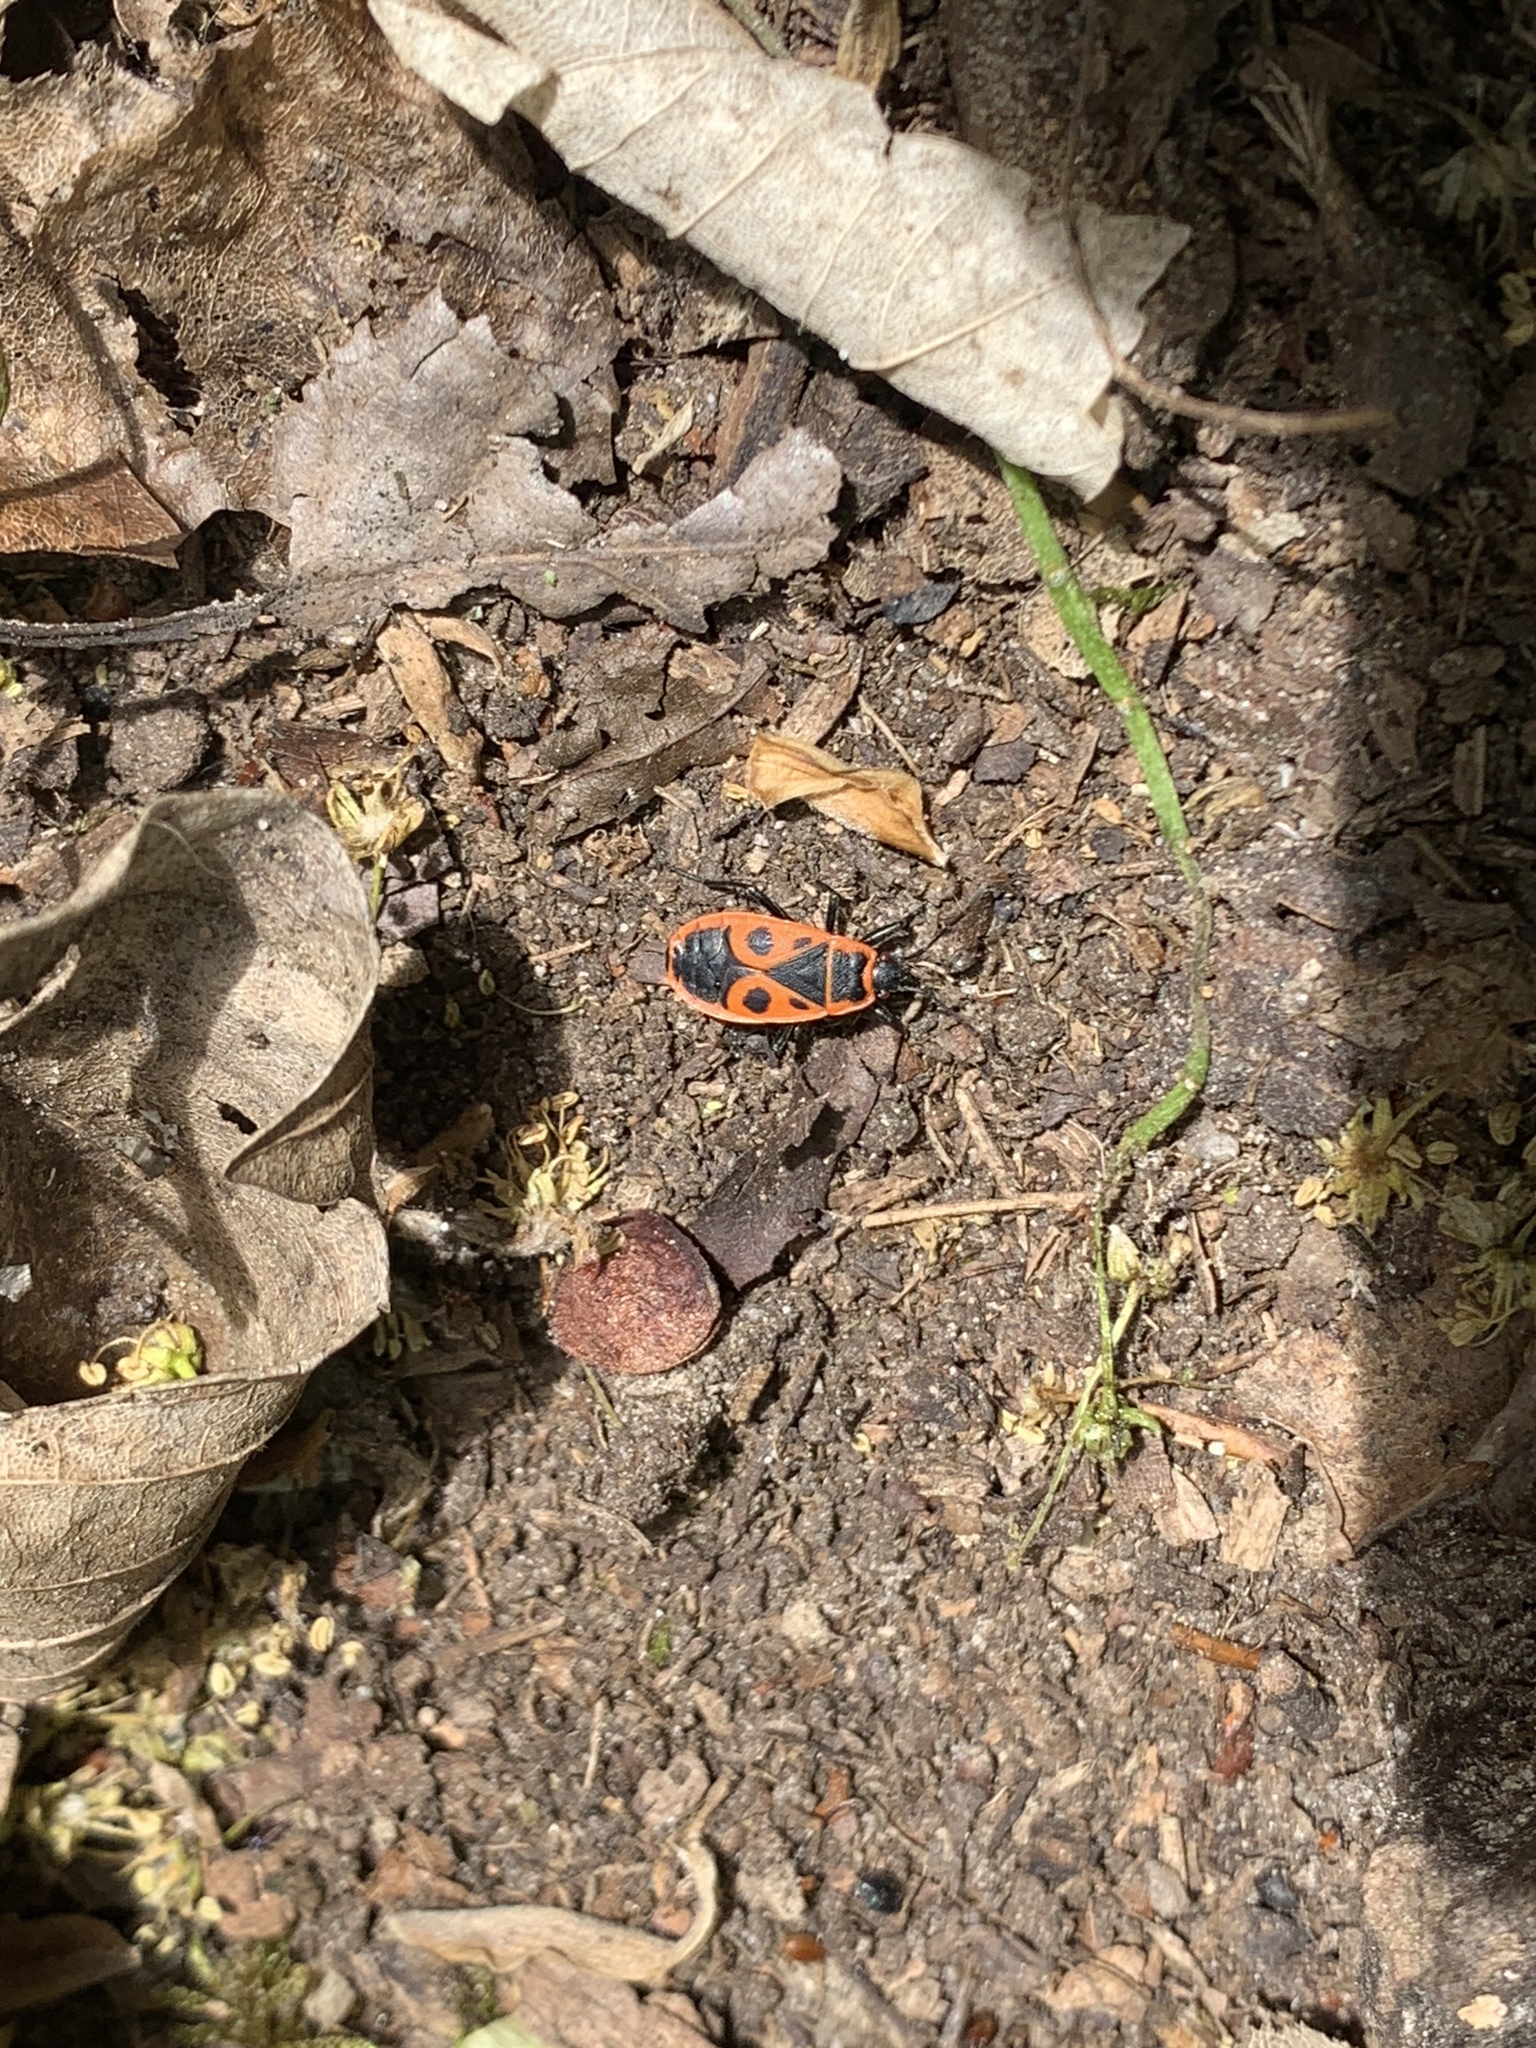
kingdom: Animalia
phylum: Arthropoda
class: Insecta
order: Hemiptera
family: Pyrrhocoridae
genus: Pyrrhocoris
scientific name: Pyrrhocoris apterus
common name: Firebug
